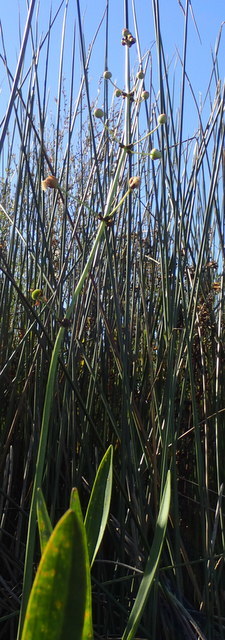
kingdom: Plantae
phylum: Tracheophyta
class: Liliopsida
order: Alismatales
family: Alismataceae
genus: Sagittaria
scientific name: Sagittaria lancifolia
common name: Lance-leaf arrowhead
